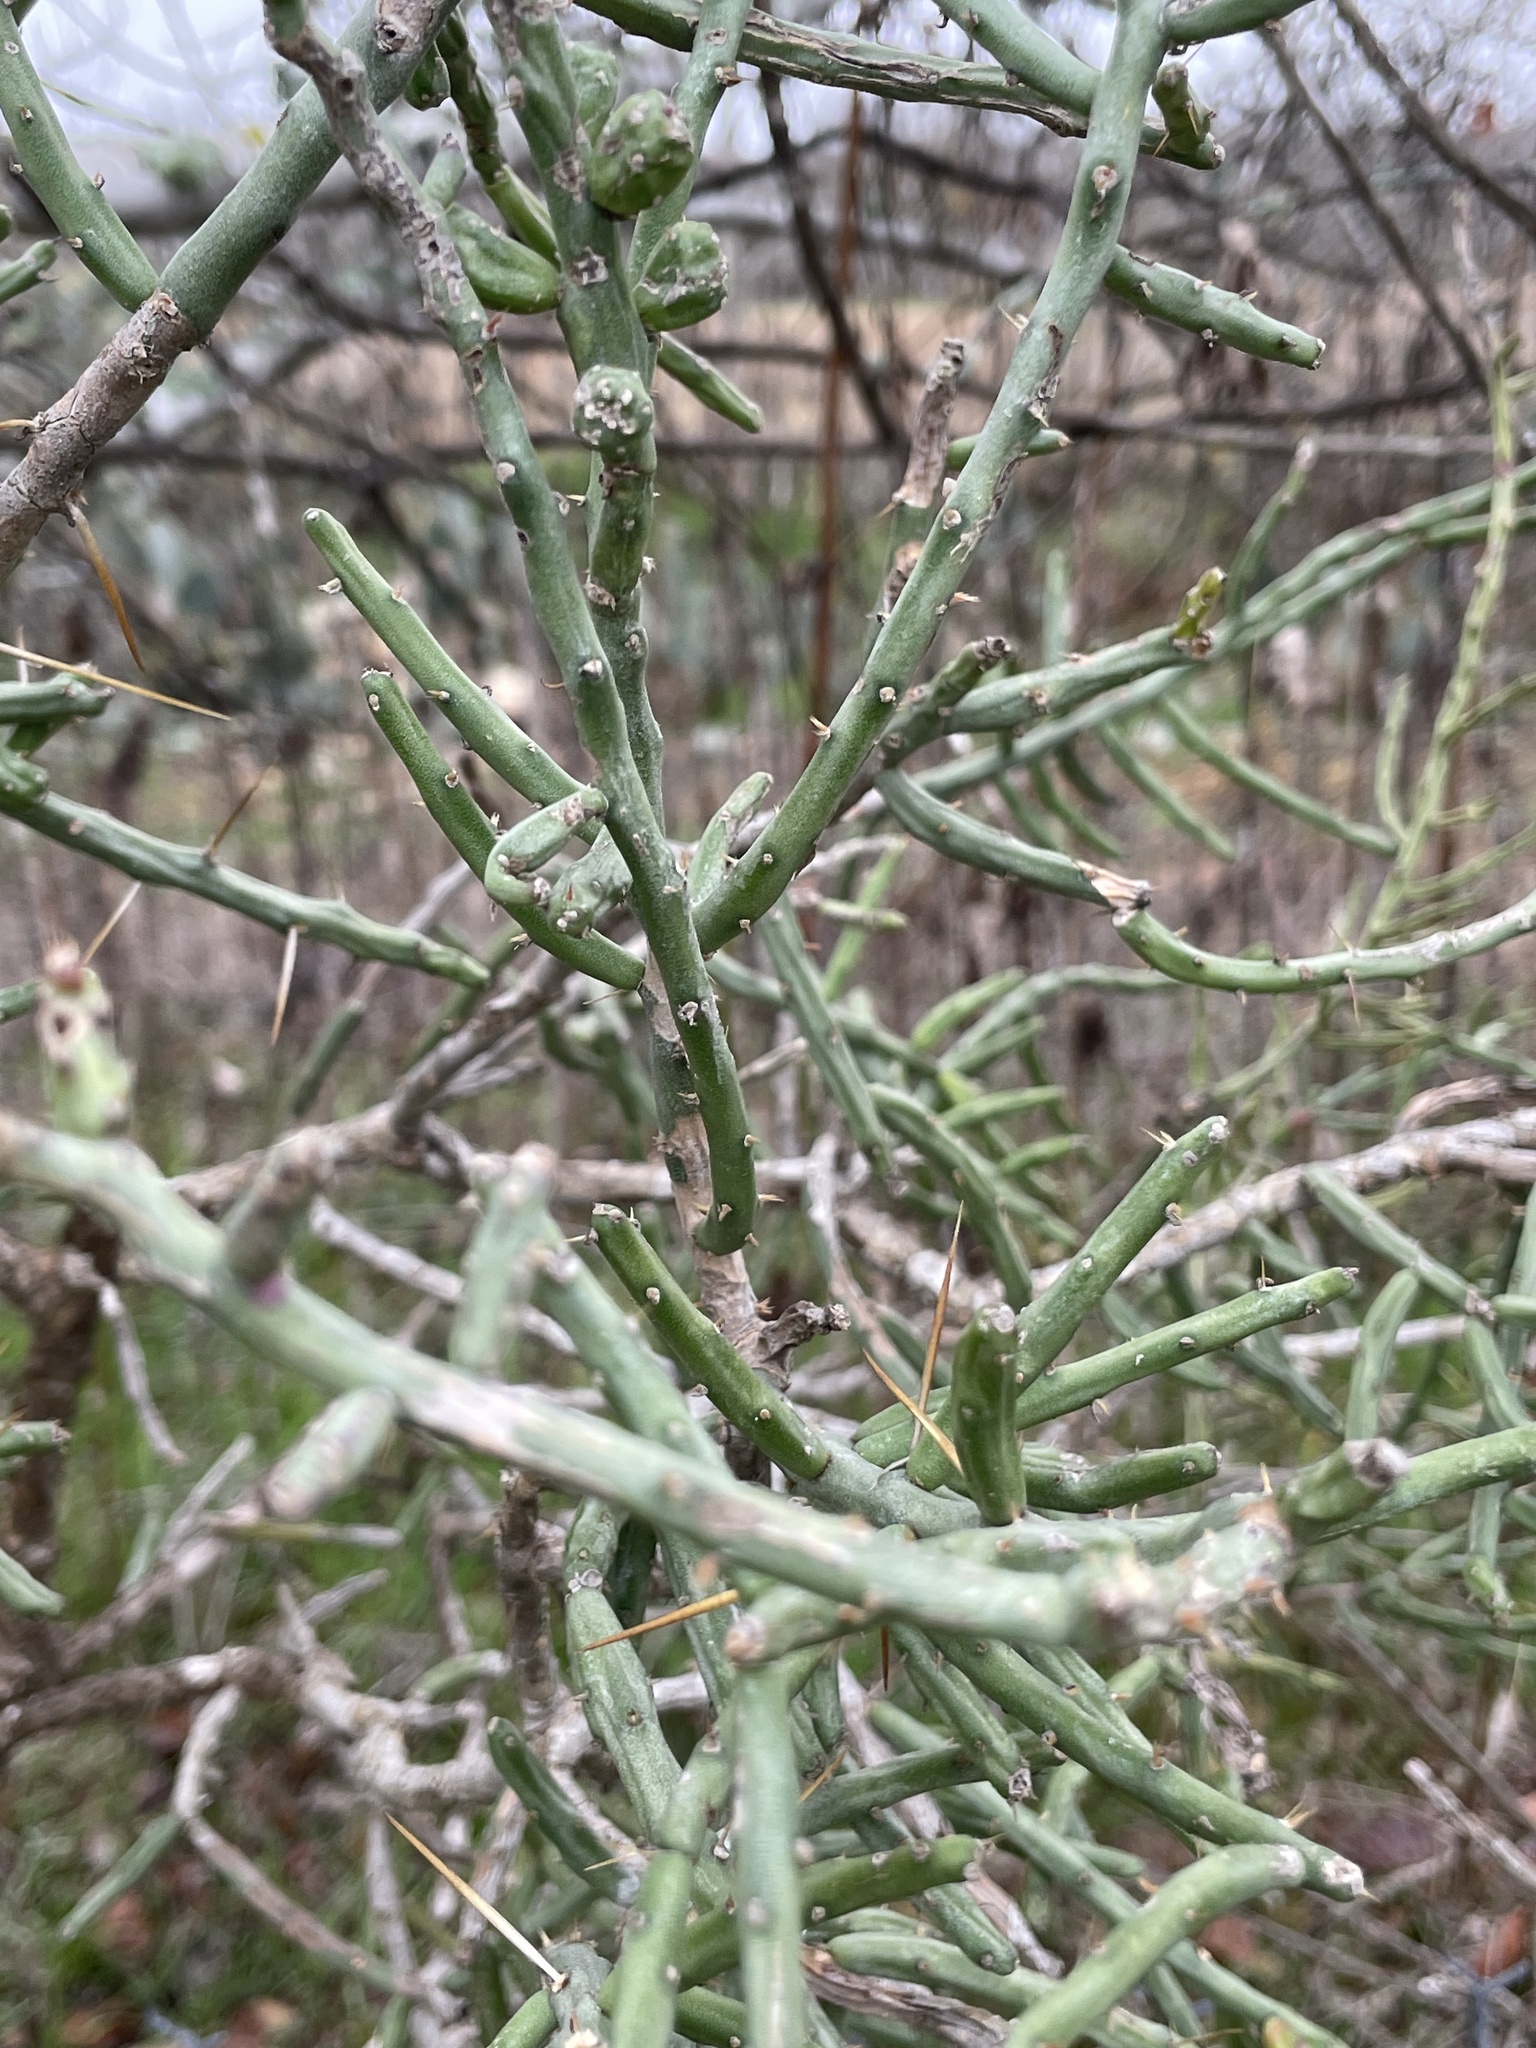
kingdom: Plantae
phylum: Tracheophyta
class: Magnoliopsida
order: Caryophyllales
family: Cactaceae
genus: Cylindropuntia
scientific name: Cylindropuntia leptocaulis
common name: Christmas cactus
